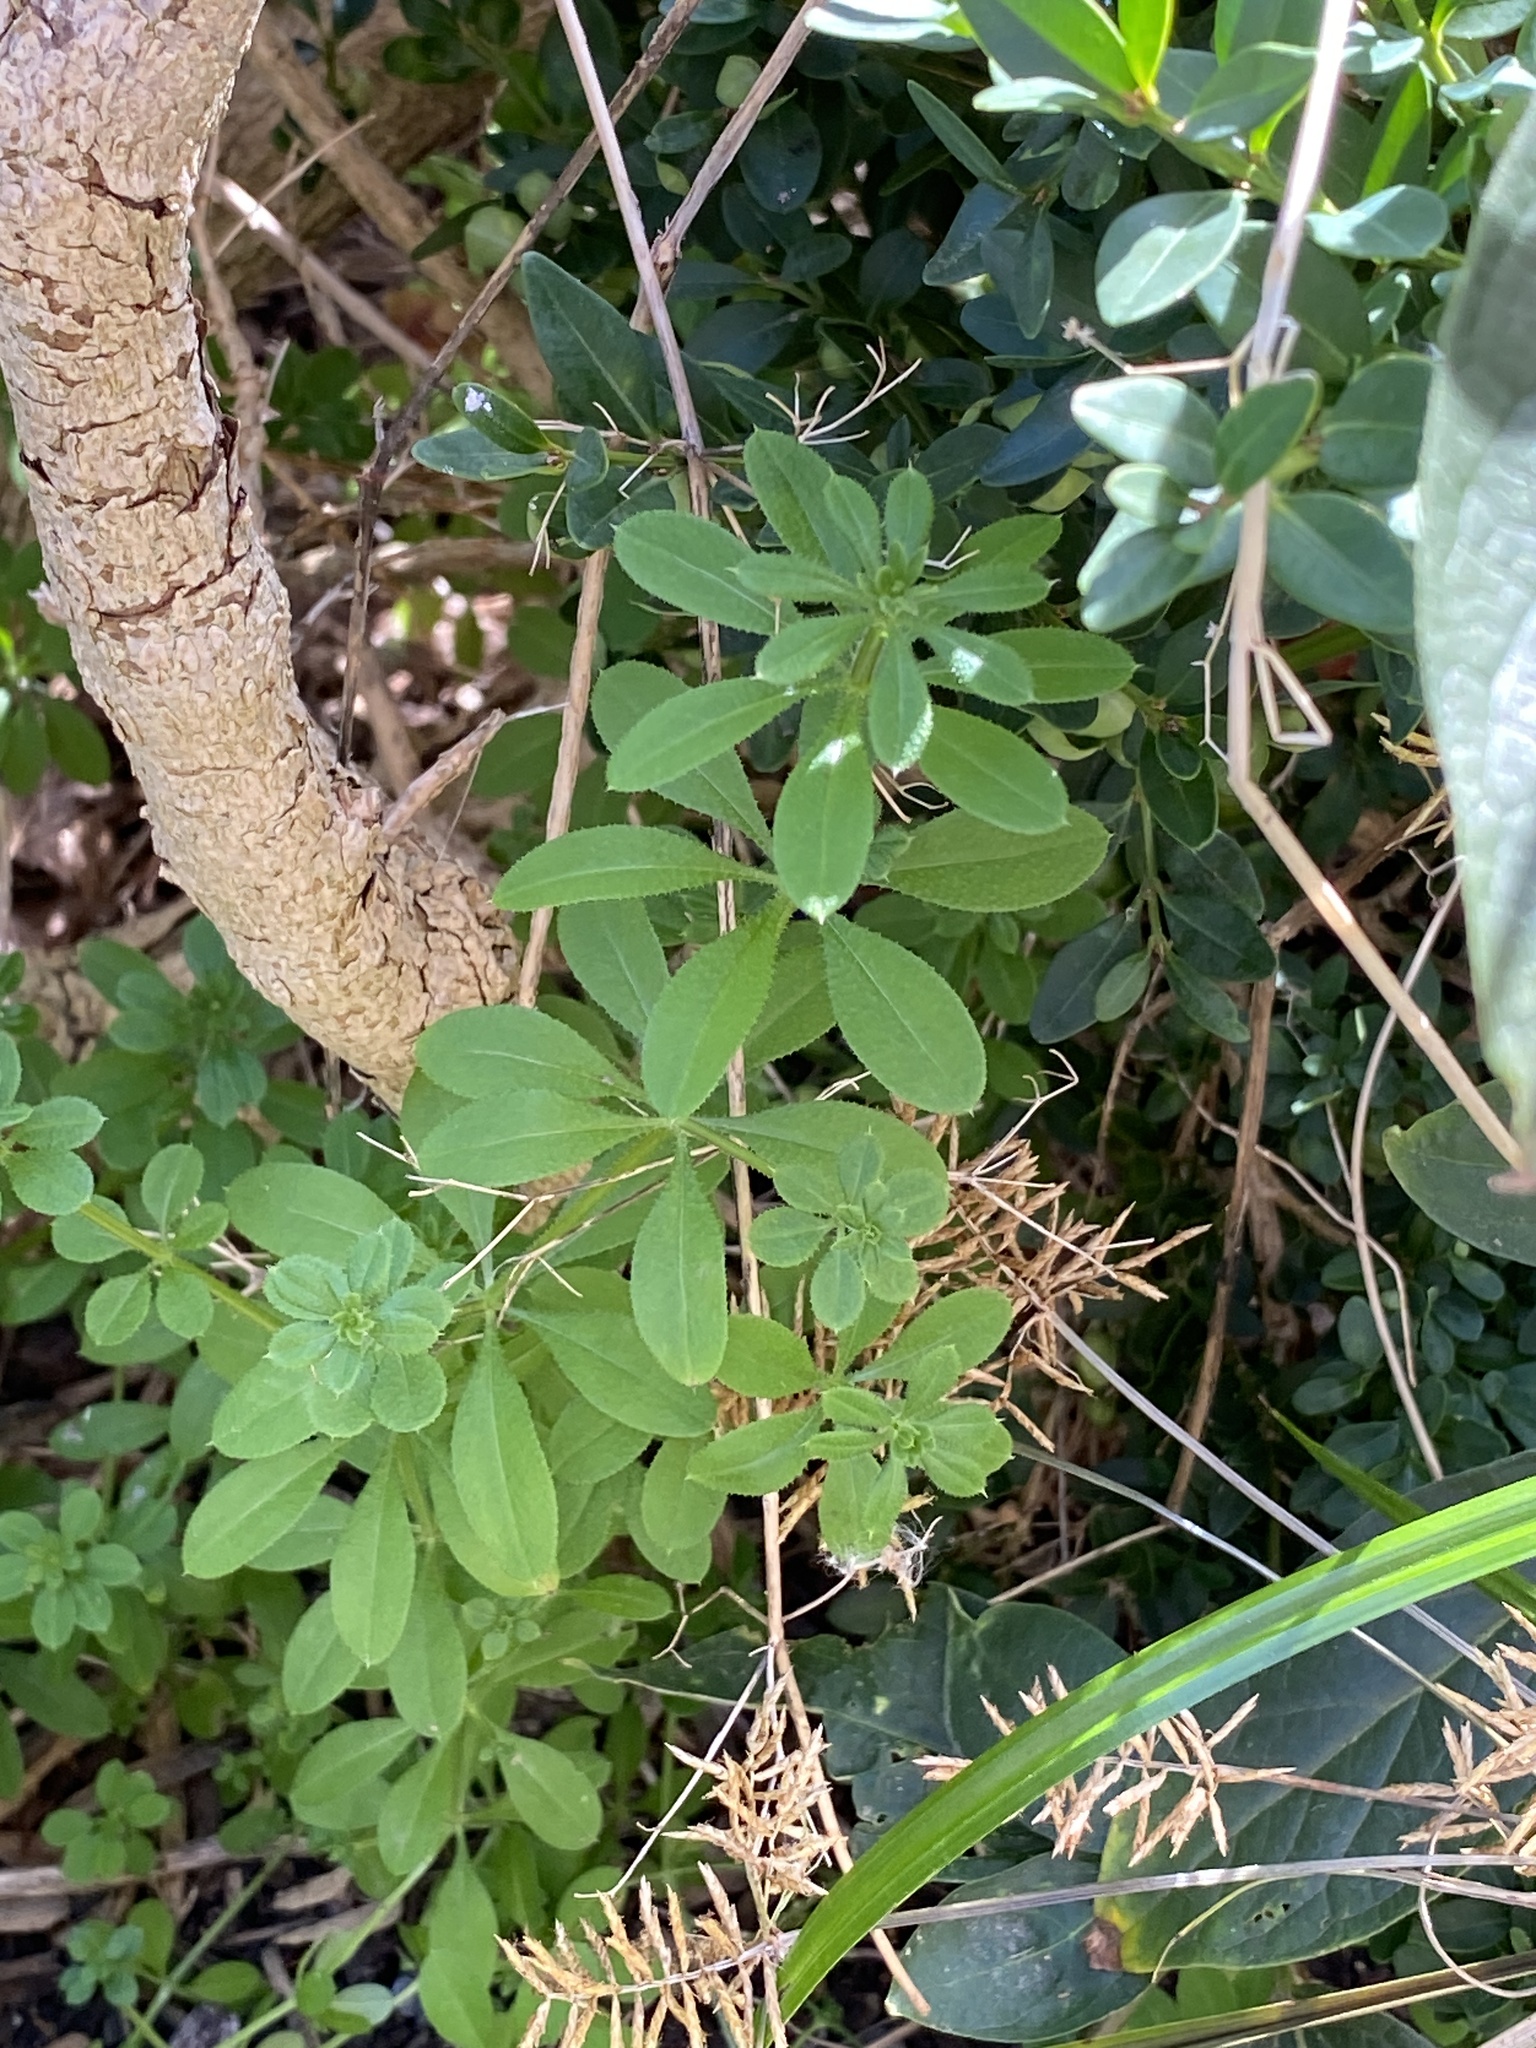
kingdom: Plantae
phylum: Tracheophyta
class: Magnoliopsida
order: Gentianales
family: Rubiaceae
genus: Galium
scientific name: Galium aparine
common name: Cleavers
